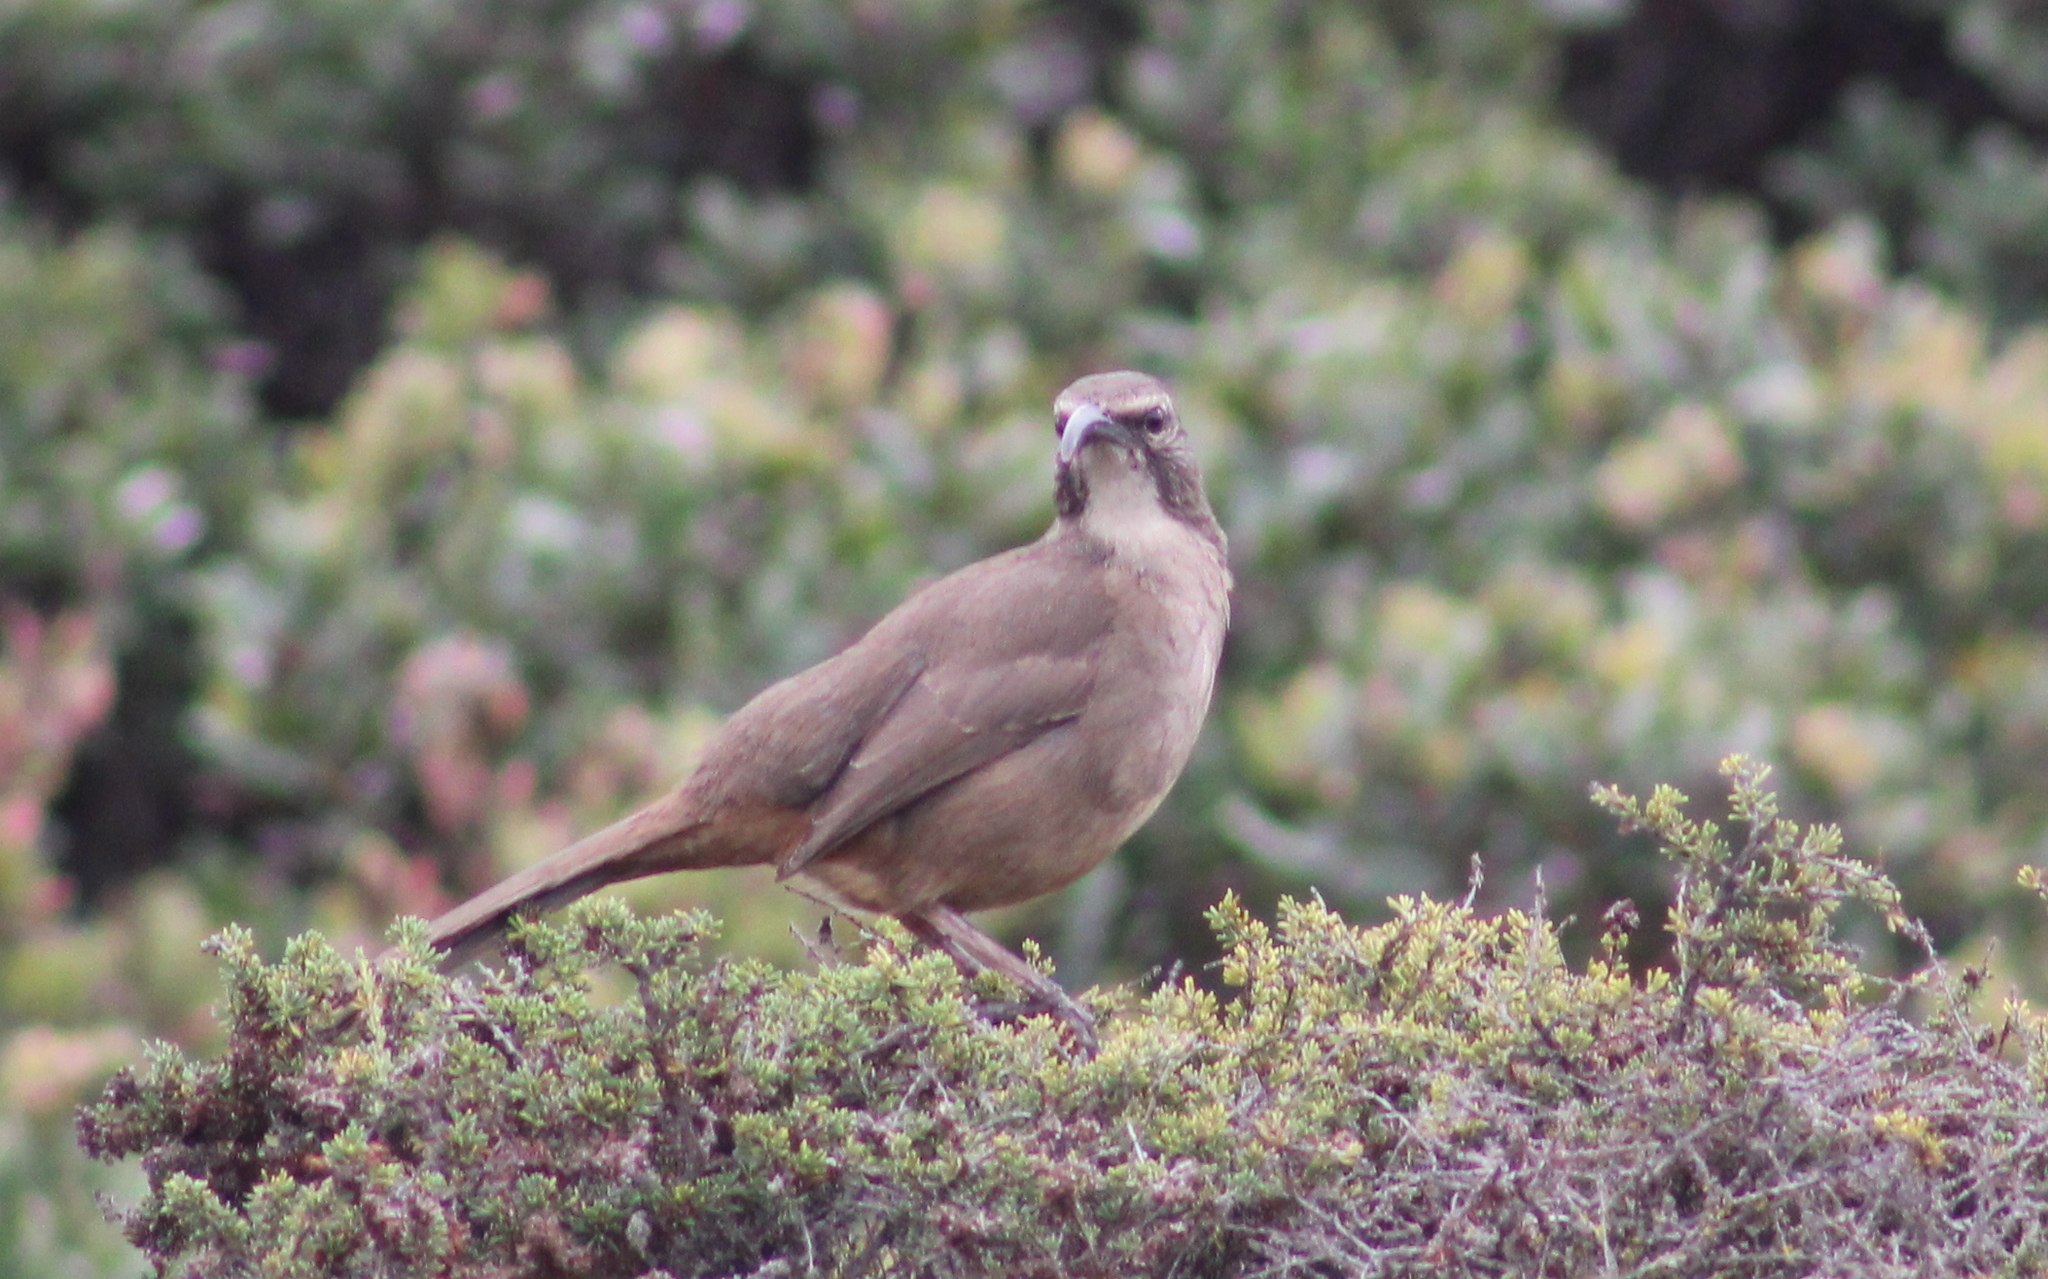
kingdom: Animalia
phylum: Chordata
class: Aves
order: Passeriformes
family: Mimidae
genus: Toxostoma
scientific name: Toxostoma redivivum
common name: California thrasher
